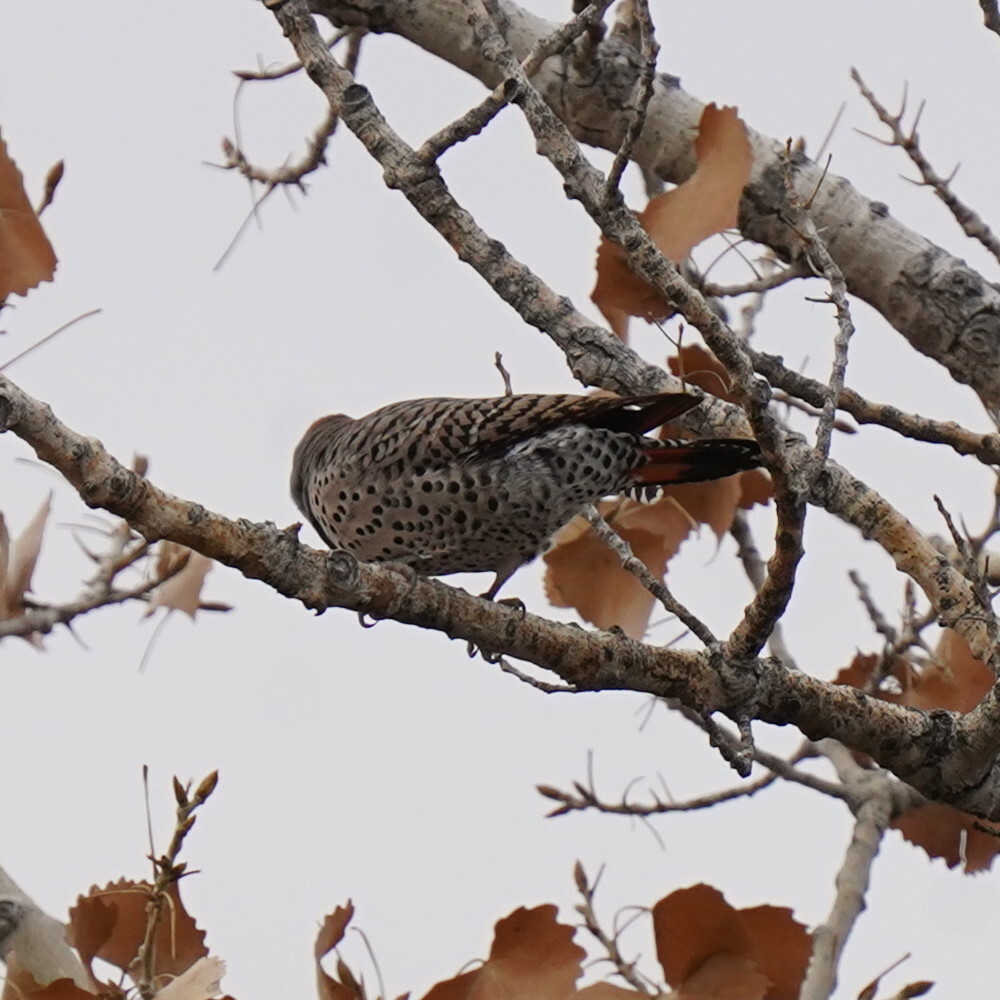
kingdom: Animalia
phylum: Chordata
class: Aves
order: Piciformes
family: Picidae
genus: Colaptes
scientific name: Colaptes auratus
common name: Northern flicker
